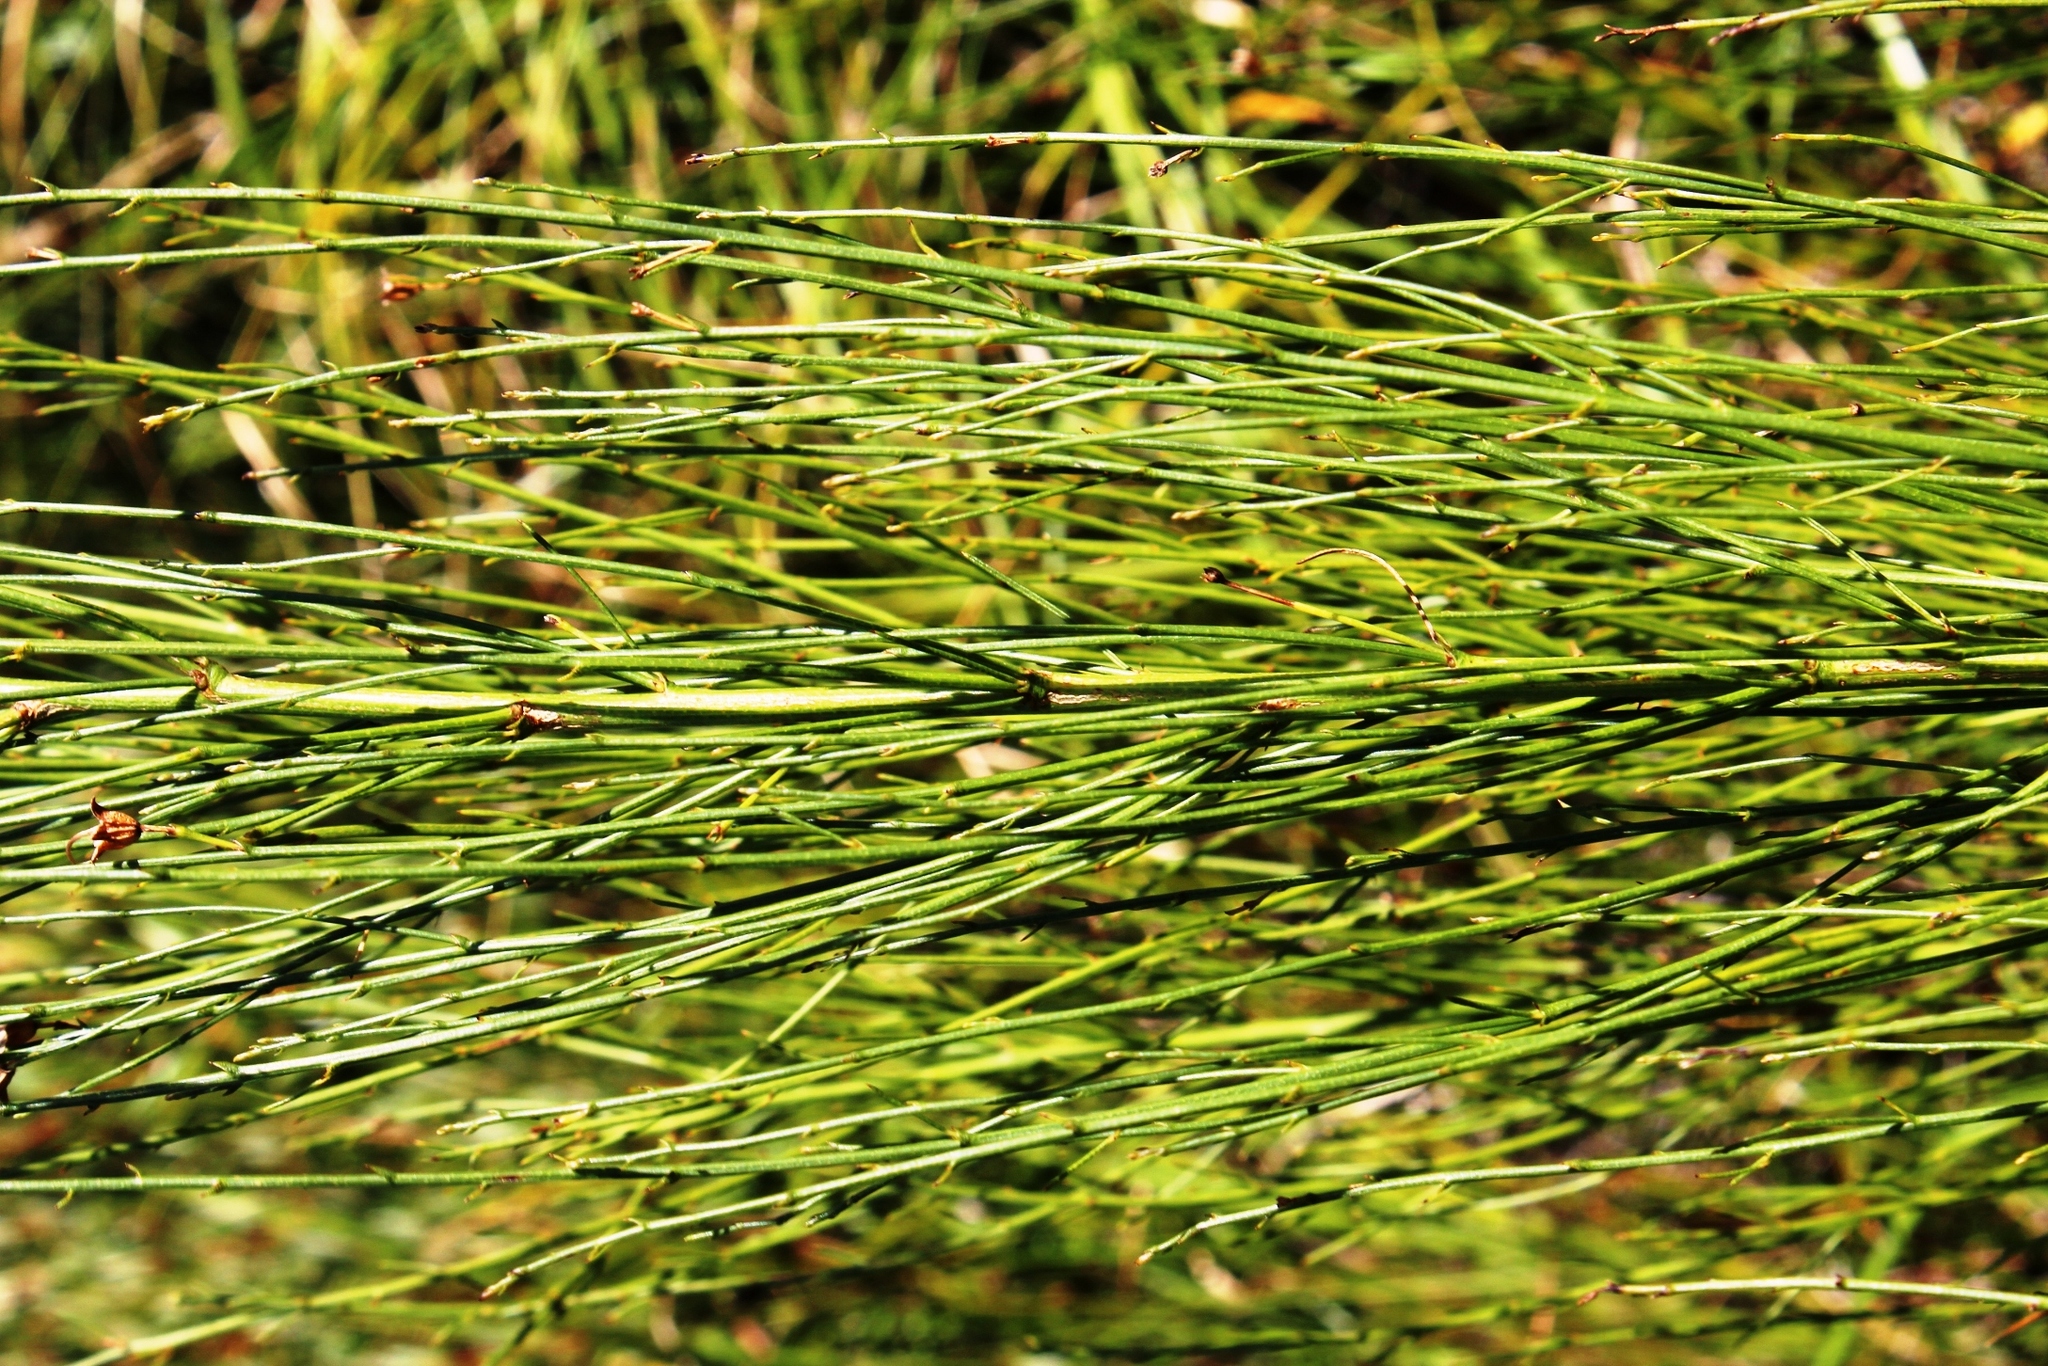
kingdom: Plantae
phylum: Tracheophyta
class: Magnoliopsida
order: Fabales
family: Fabaceae
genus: Psoralea
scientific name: Psoralea usitata
